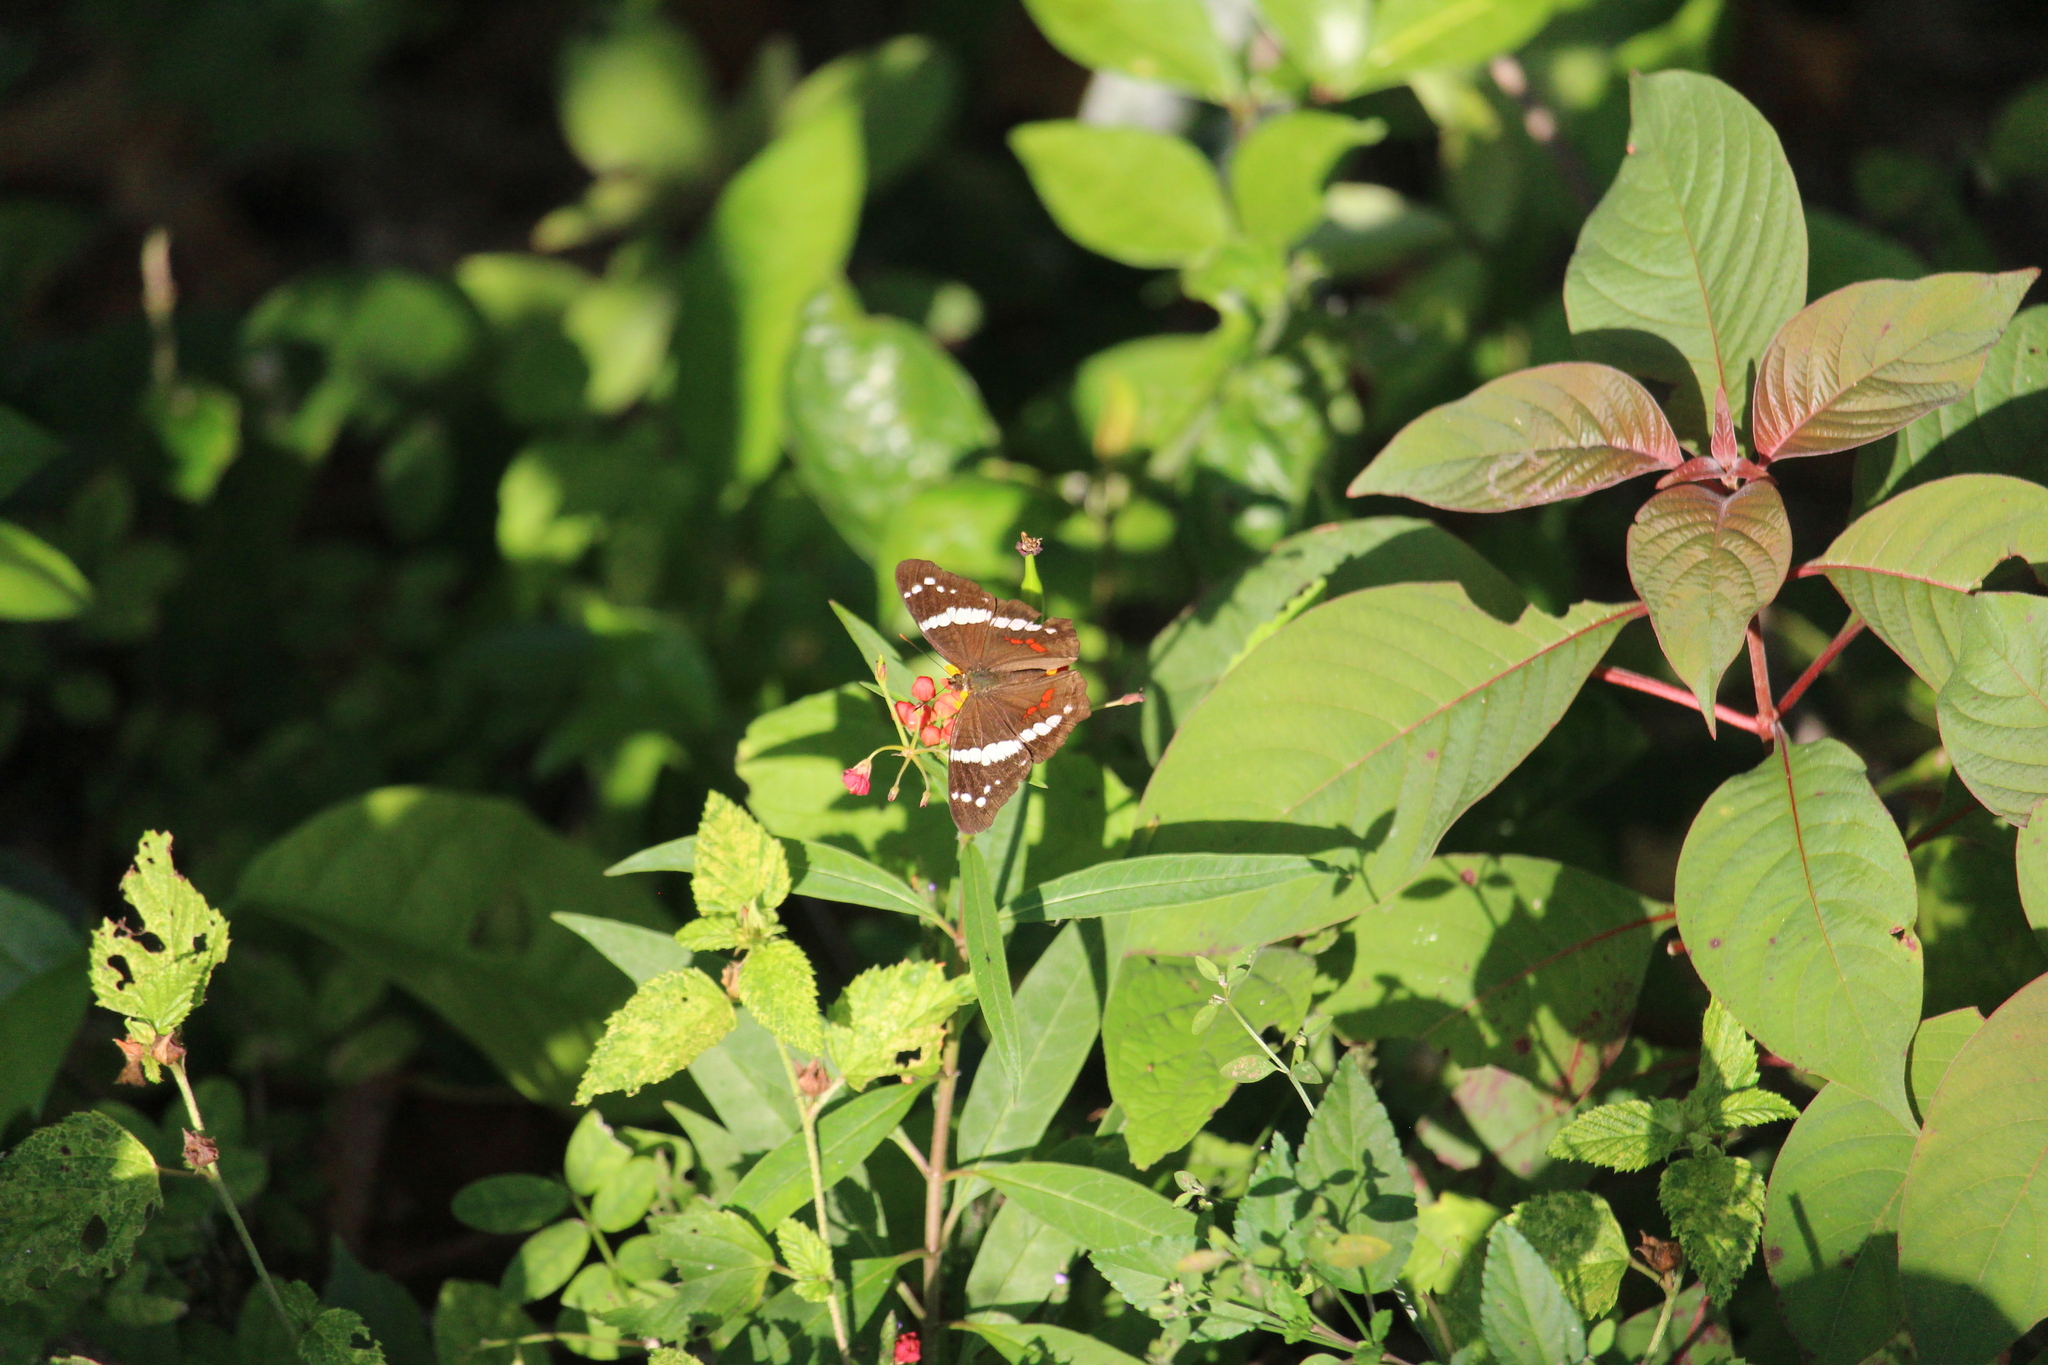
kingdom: Animalia
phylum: Arthropoda
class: Insecta
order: Lepidoptera
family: Nymphalidae
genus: Anartia
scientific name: Anartia fatima
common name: Banded peacock
